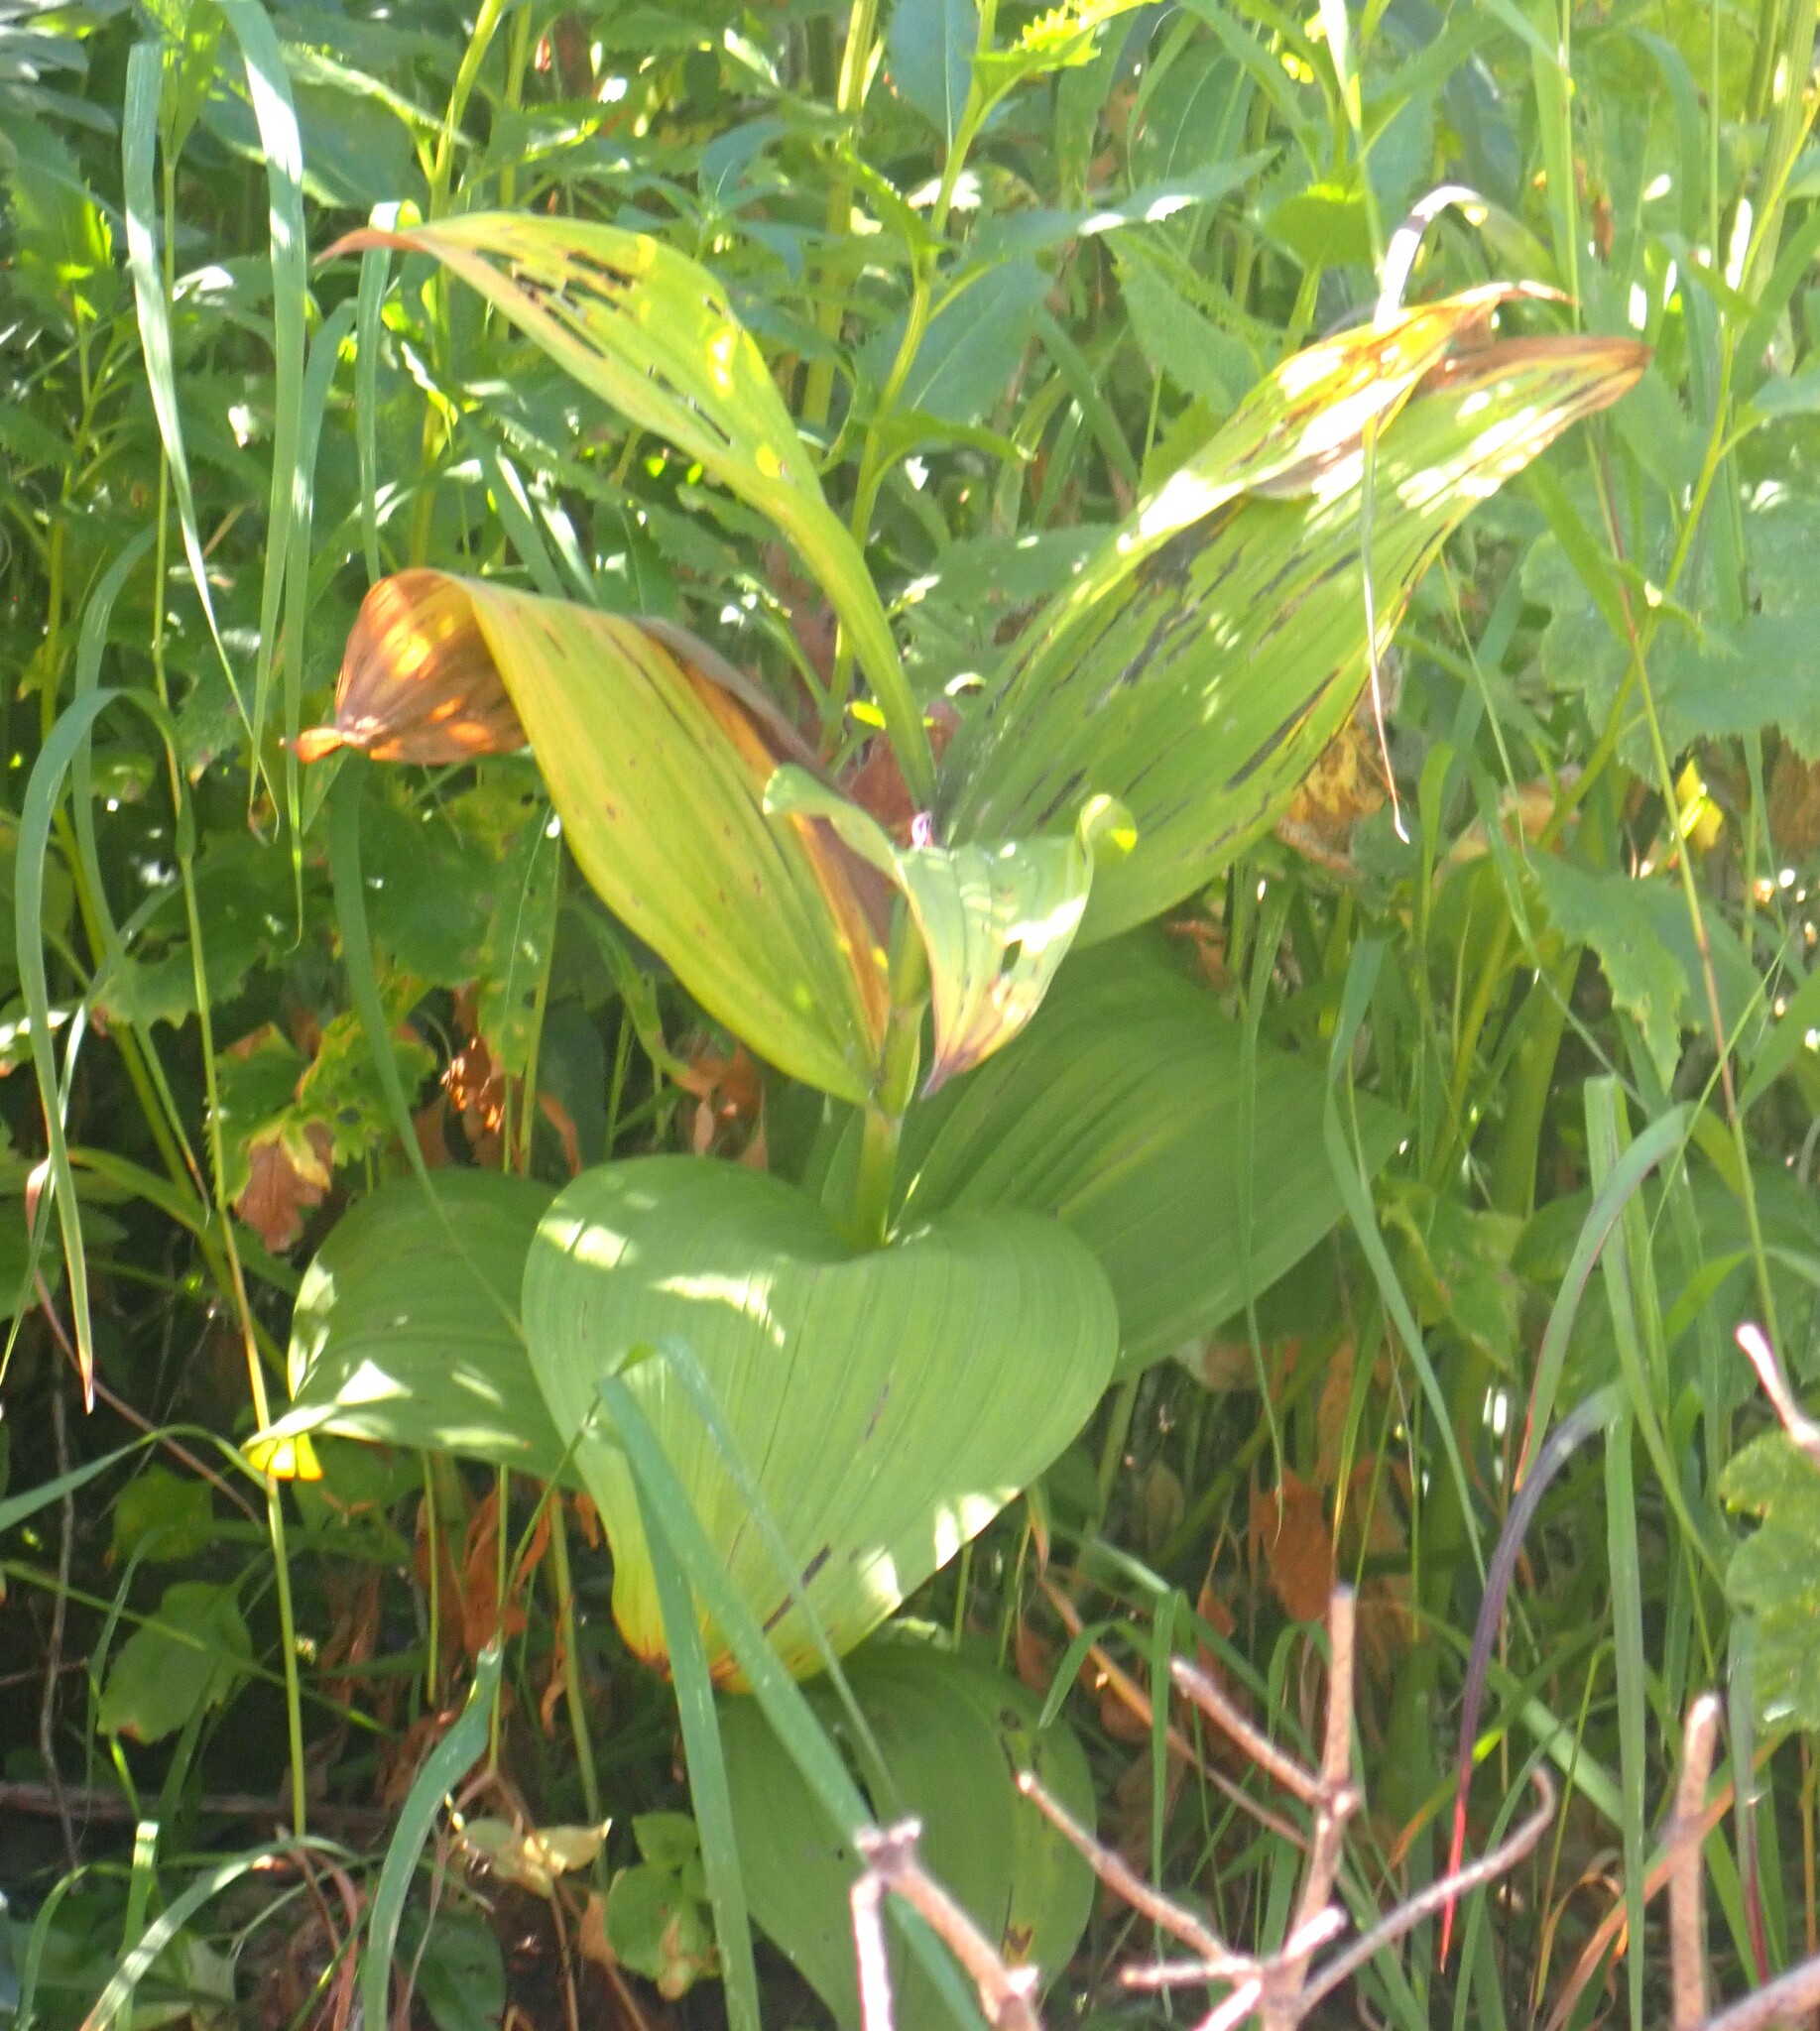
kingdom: Plantae
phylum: Tracheophyta
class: Liliopsida
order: Liliales
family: Melanthiaceae
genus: Veratrum
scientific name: Veratrum viride
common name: American false hellebore
